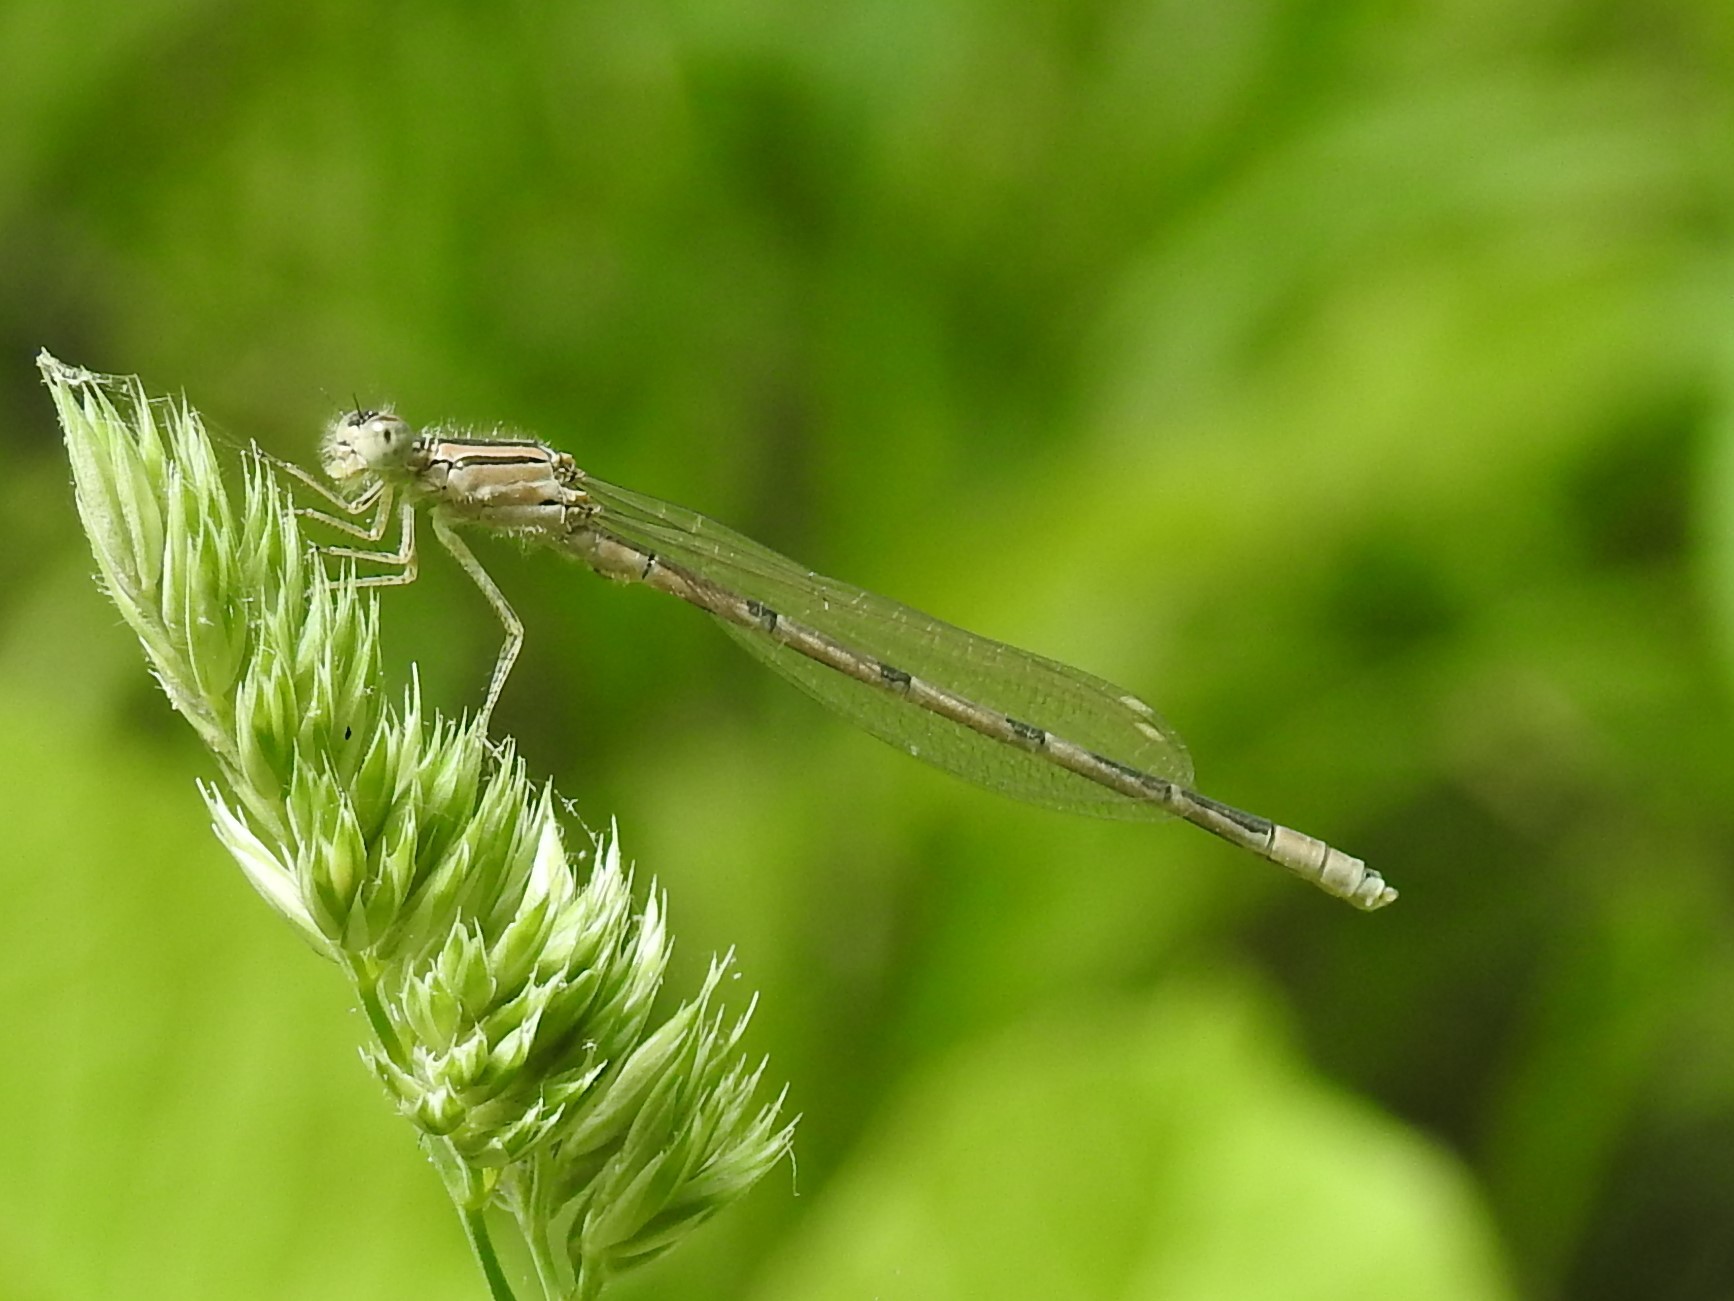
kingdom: Animalia
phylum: Arthropoda
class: Insecta
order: Odonata
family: Coenagrionidae
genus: Enallagma
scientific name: Enallagma civile
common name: Damselfly
